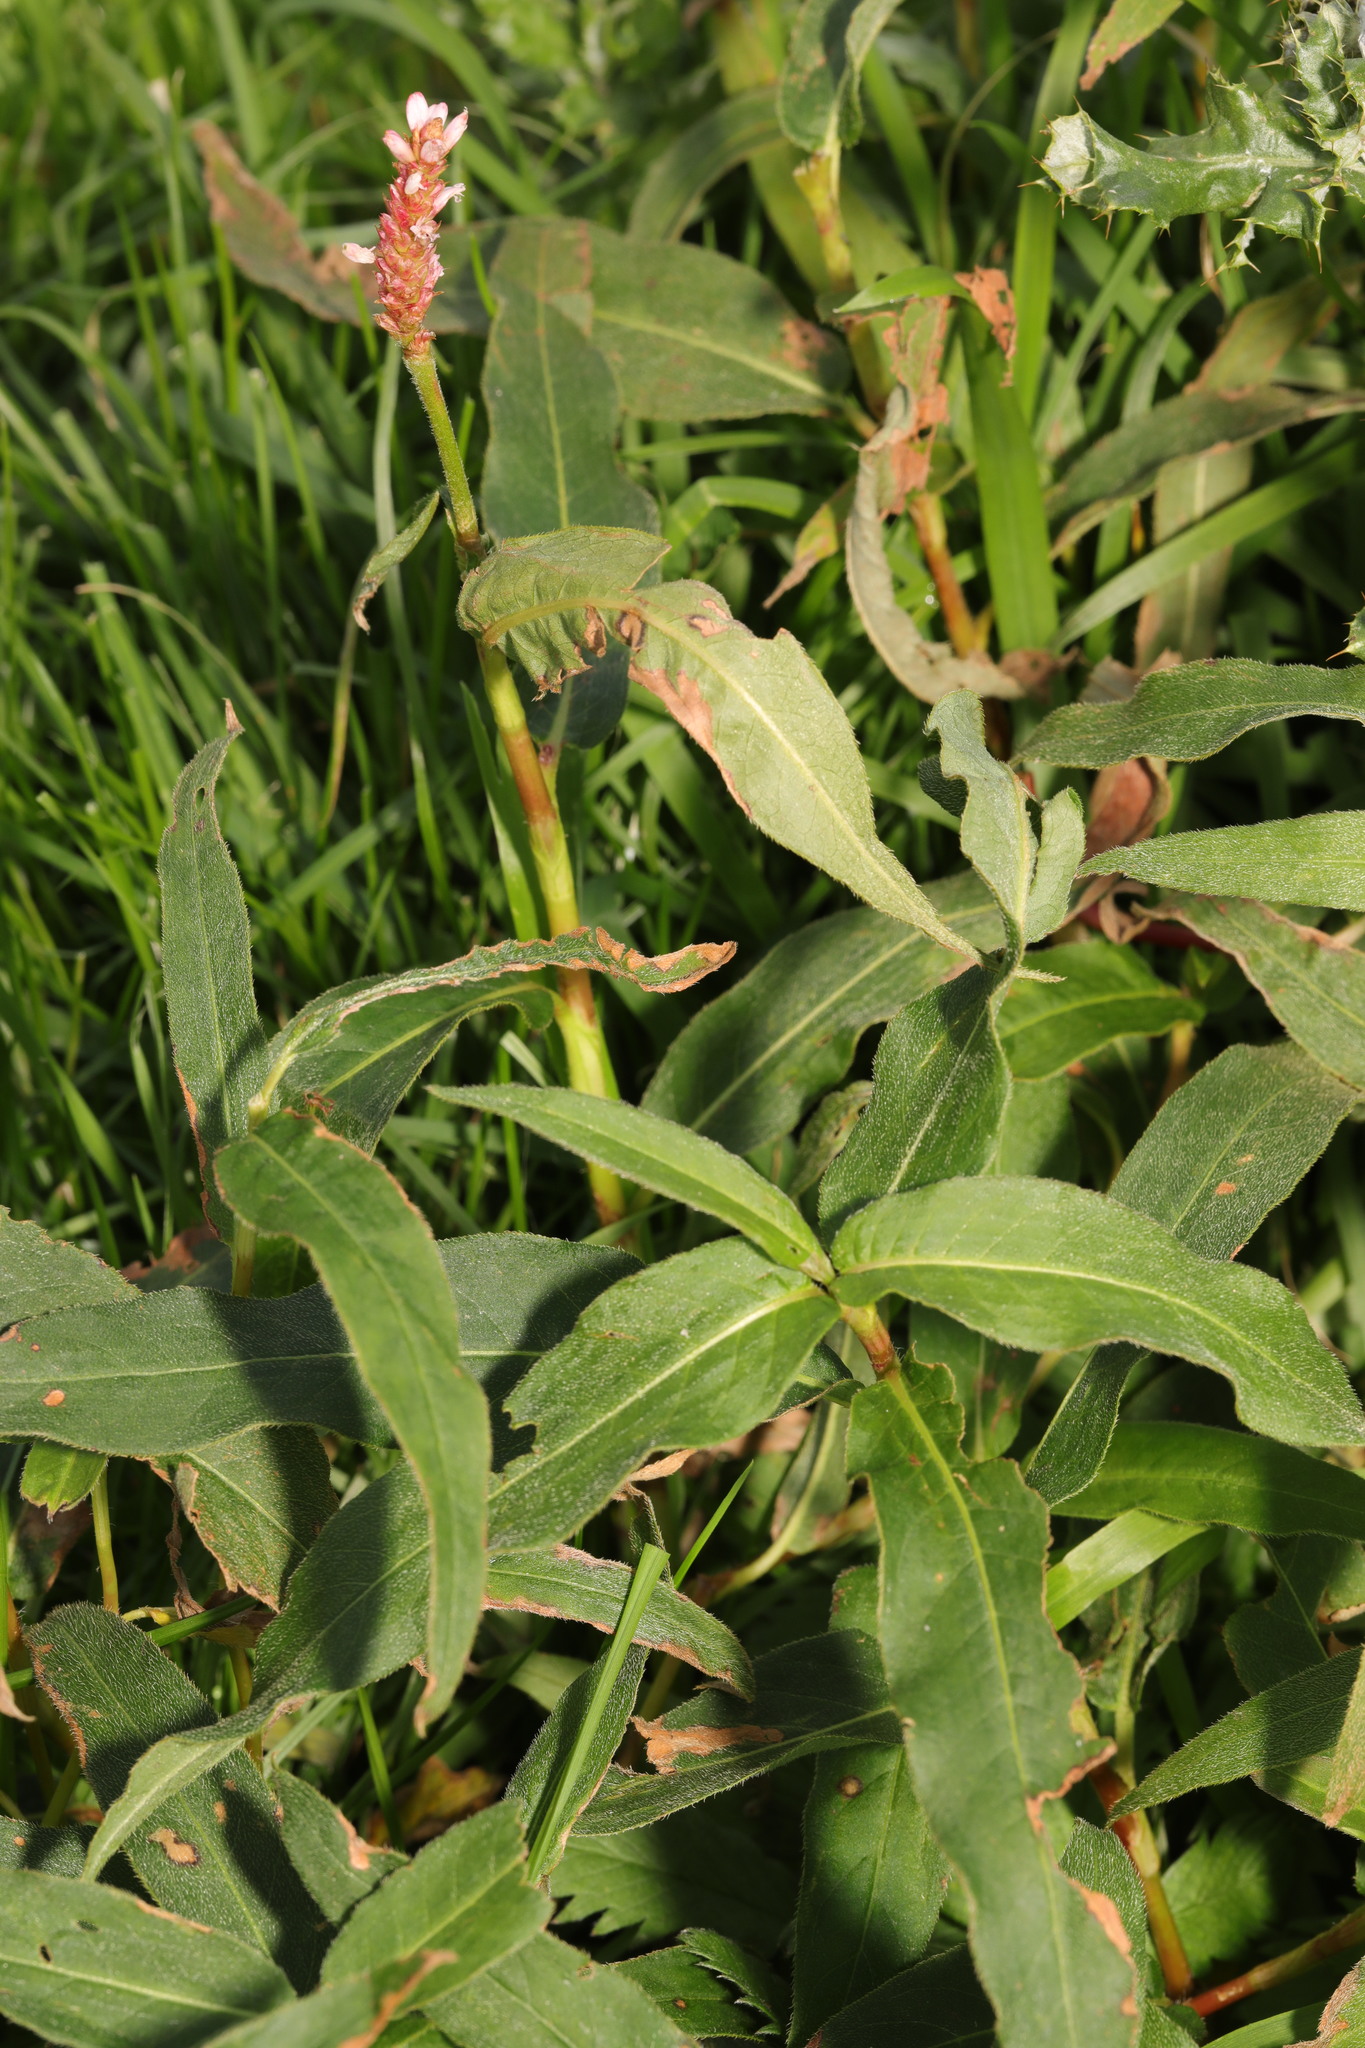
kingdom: Plantae
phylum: Tracheophyta
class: Magnoliopsida
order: Caryophyllales
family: Polygonaceae
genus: Persicaria
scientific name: Persicaria amphibia
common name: Amphibious bistort
